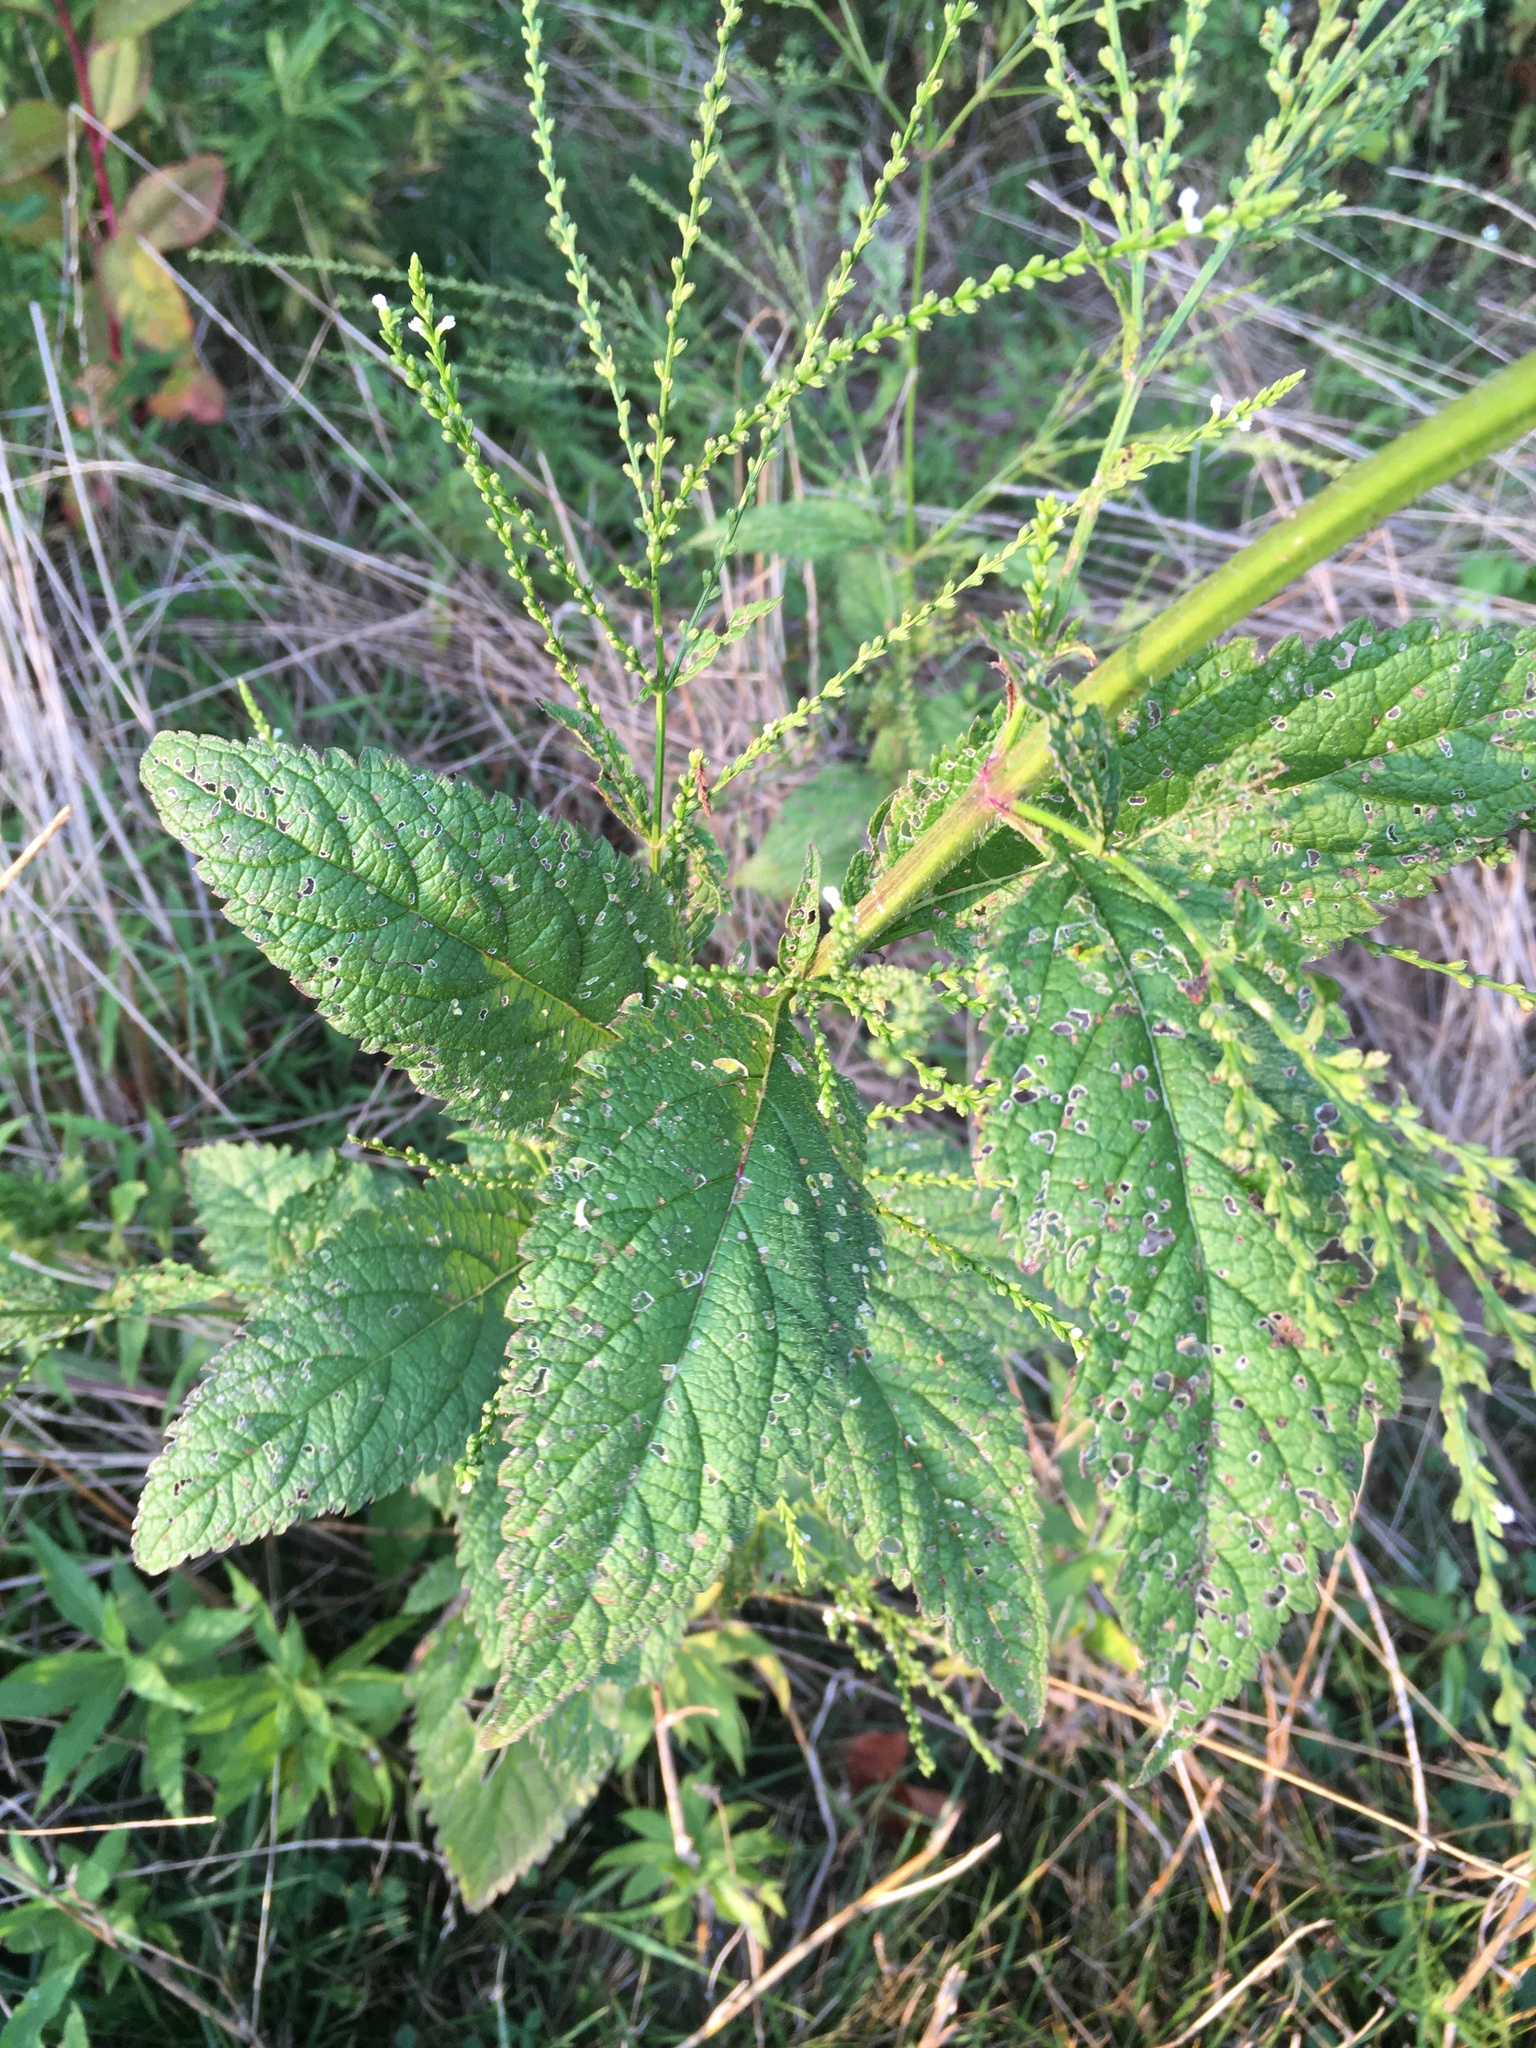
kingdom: Plantae
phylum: Tracheophyta
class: Magnoliopsida
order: Lamiales
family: Verbenaceae
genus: Verbena
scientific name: Verbena urticifolia
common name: Nettle-leaved vervain
